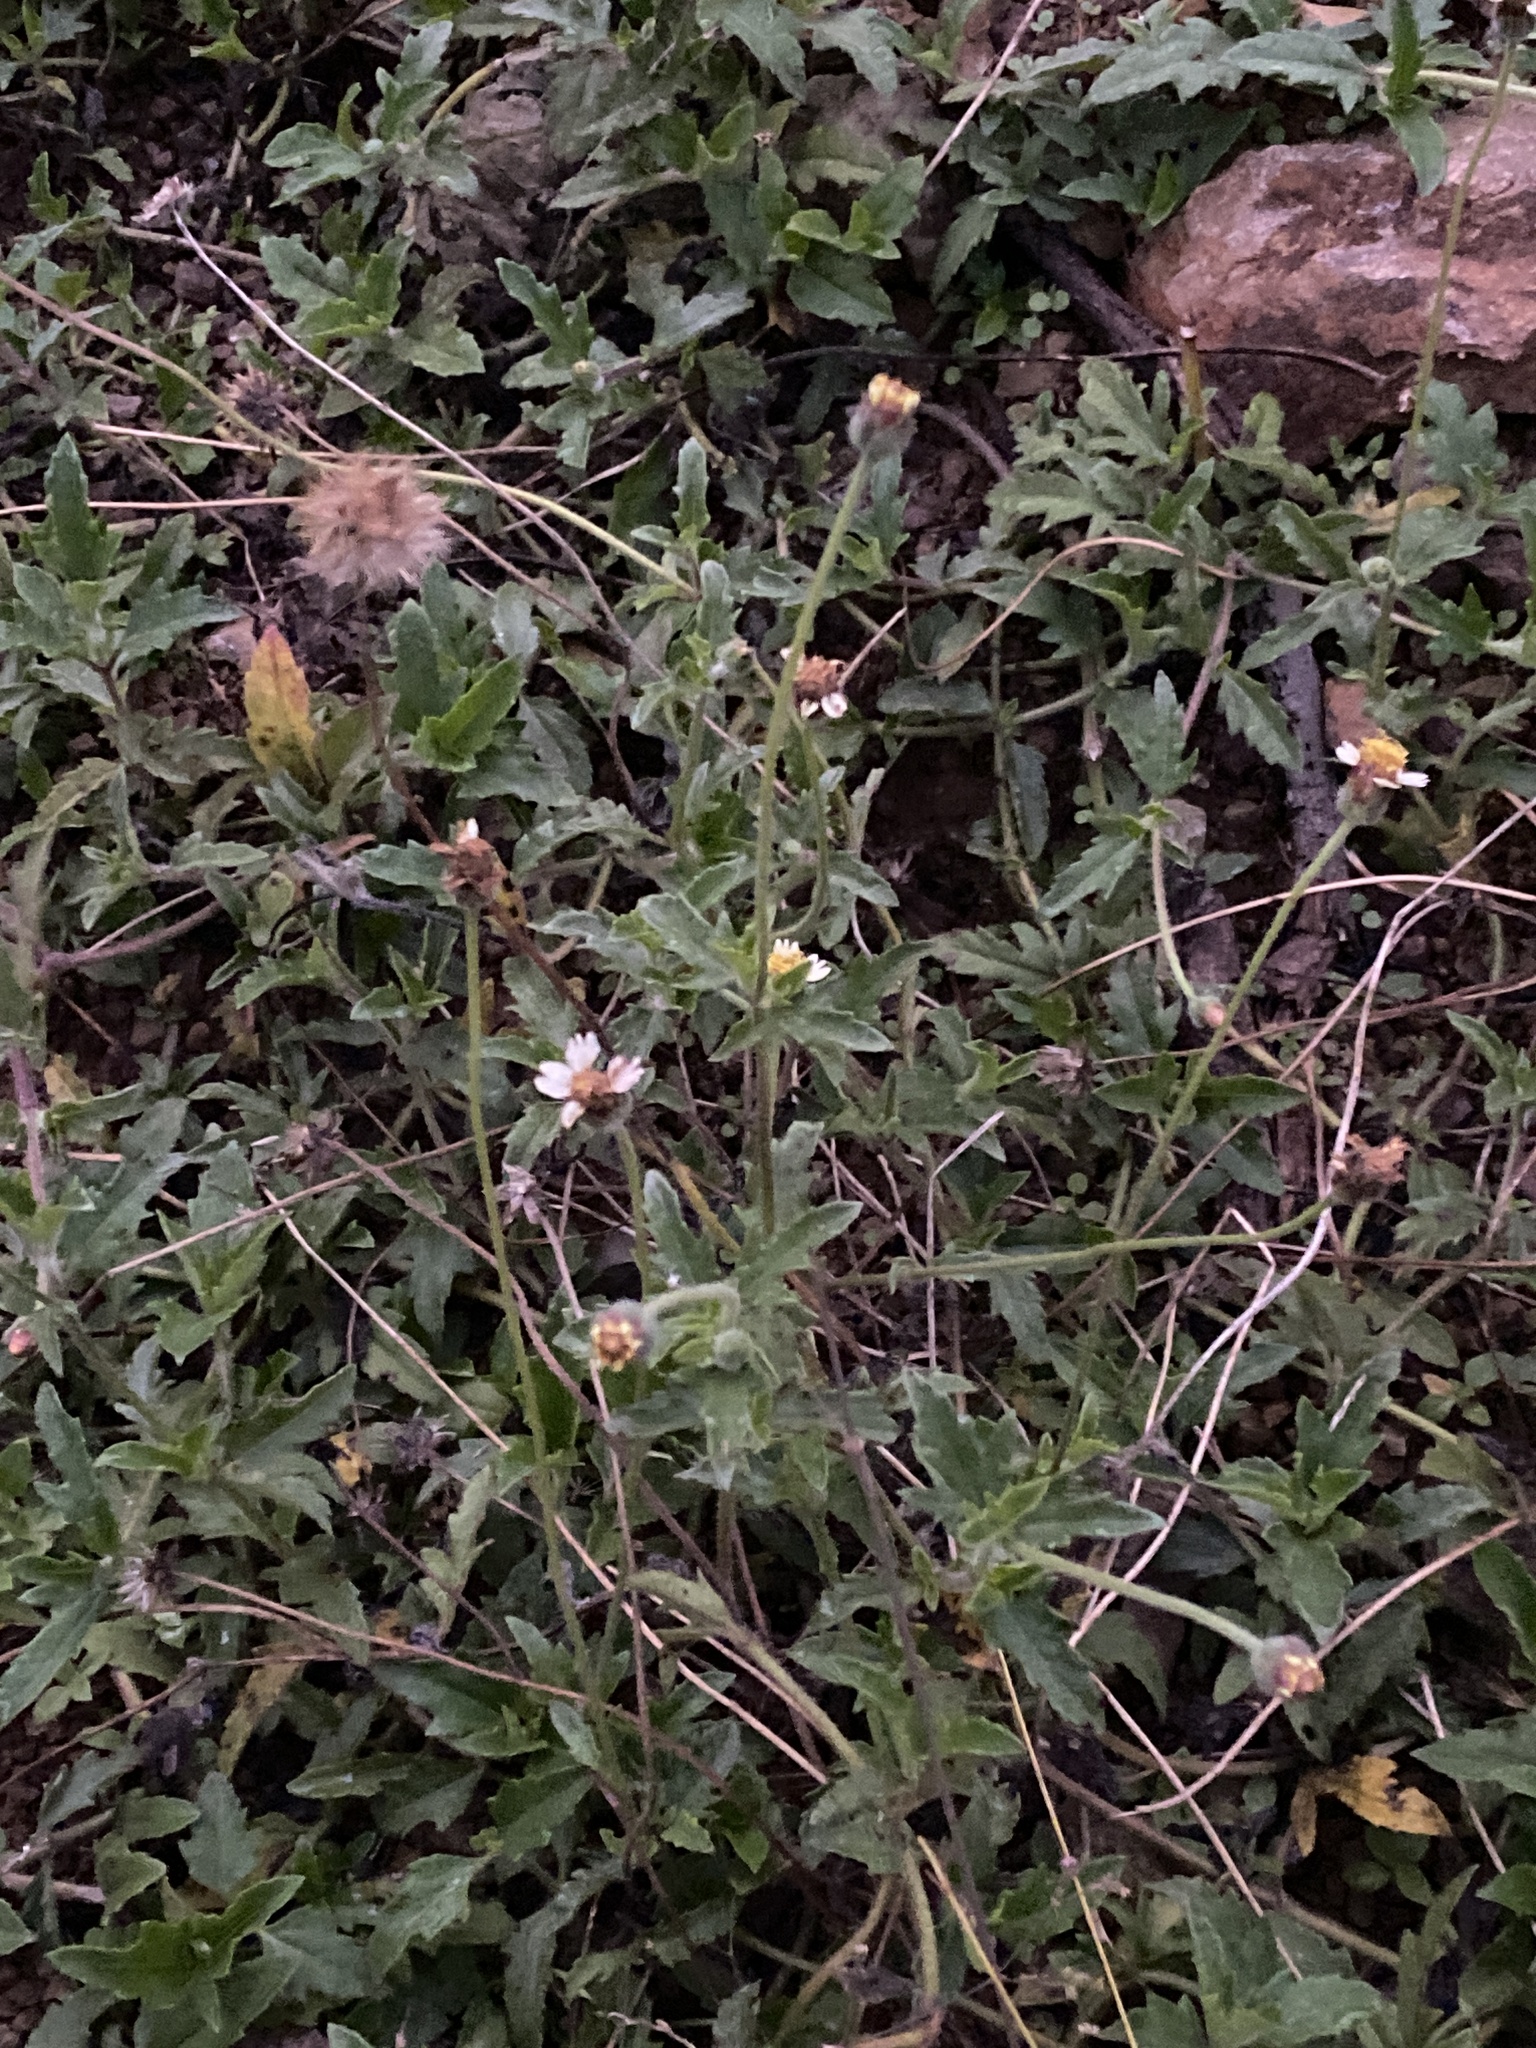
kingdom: Plantae
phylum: Tracheophyta
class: Magnoliopsida
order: Asterales
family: Asteraceae
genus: Tridax
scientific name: Tridax procumbens
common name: Coatbuttons
